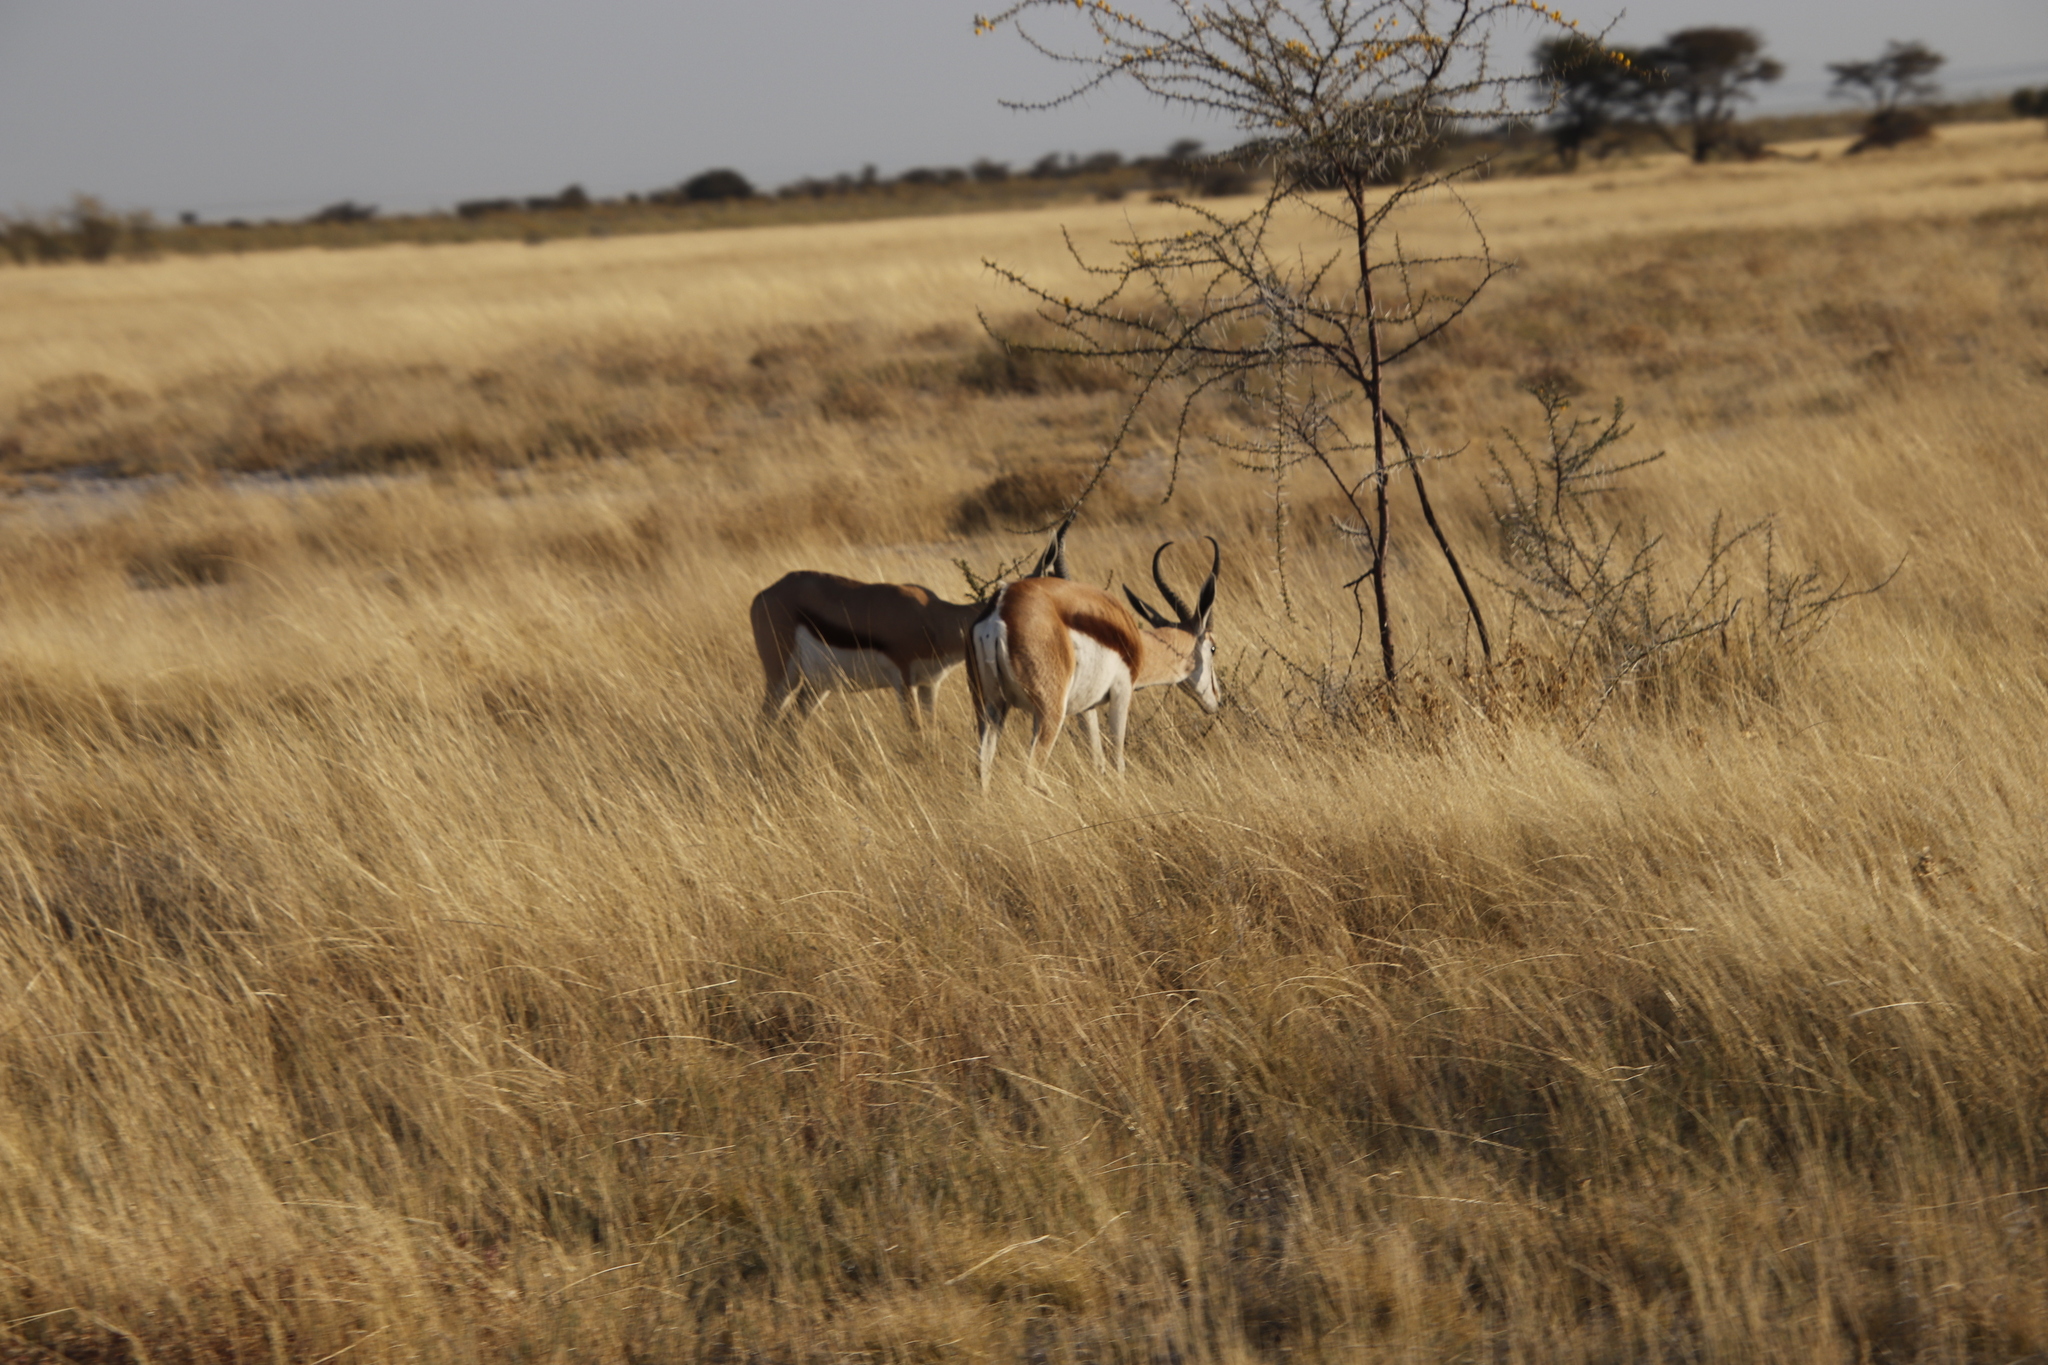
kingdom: Animalia
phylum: Chordata
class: Mammalia
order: Artiodactyla
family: Bovidae
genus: Antidorcas
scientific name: Antidorcas marsupialis
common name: Springbok
